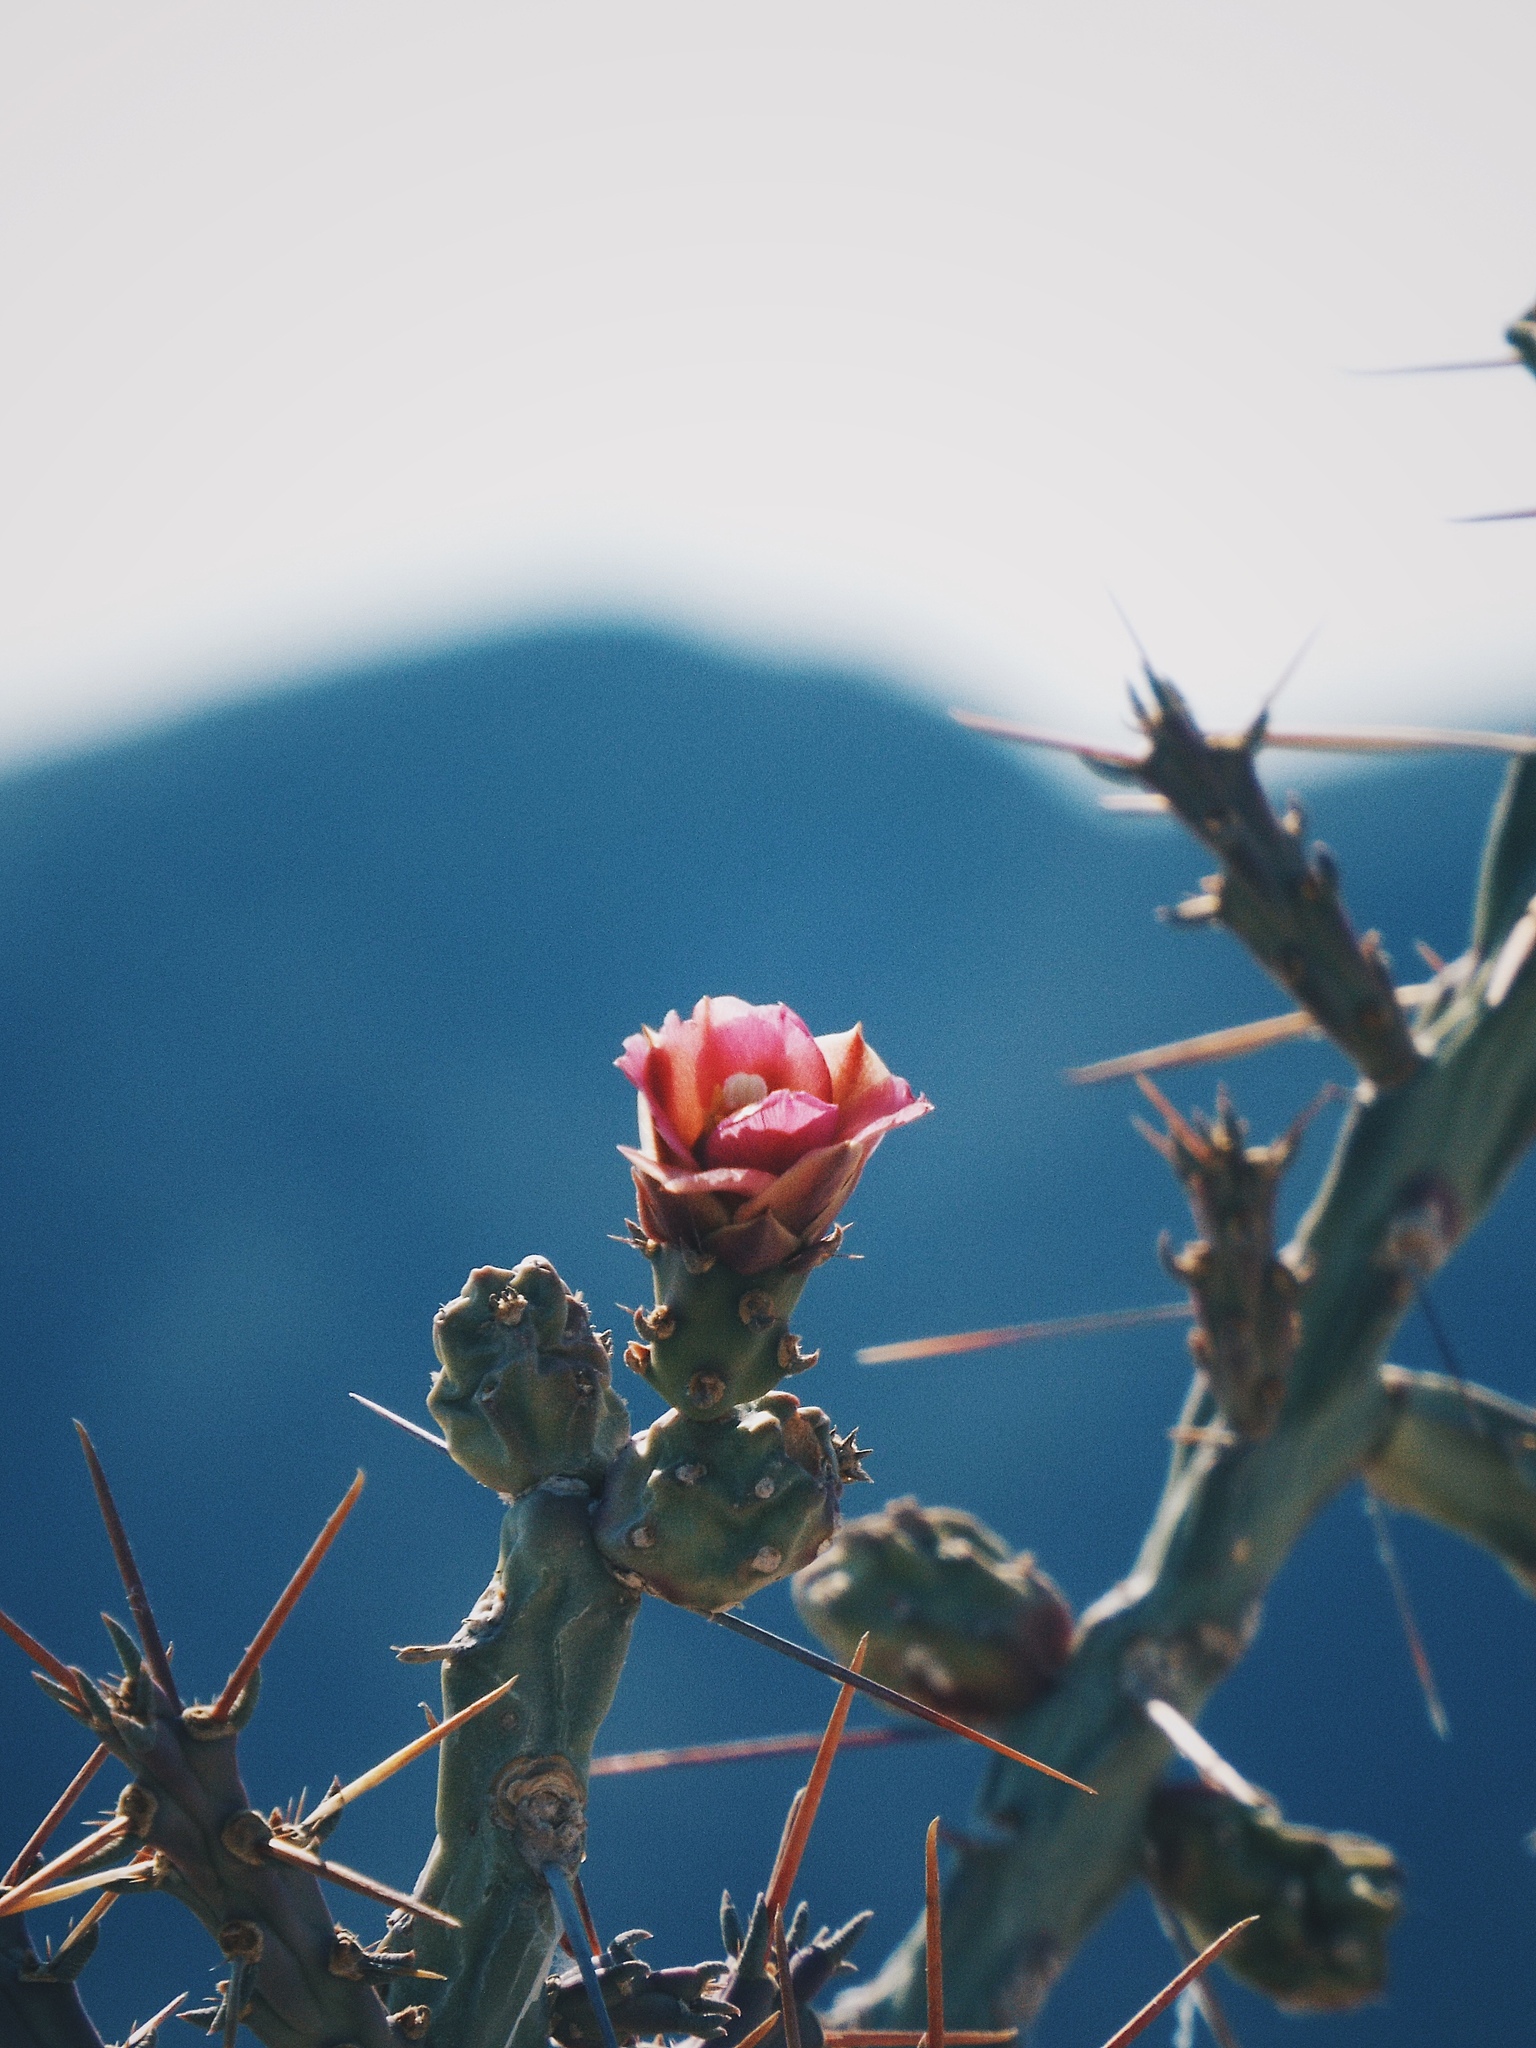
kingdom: Plantae
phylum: Tracheophyta
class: Magnoliopsida
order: Caryophyllales
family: Cactaceae
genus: Cylindropuntia
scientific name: Cylindropuntia kleiniae
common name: Klein's cholla
